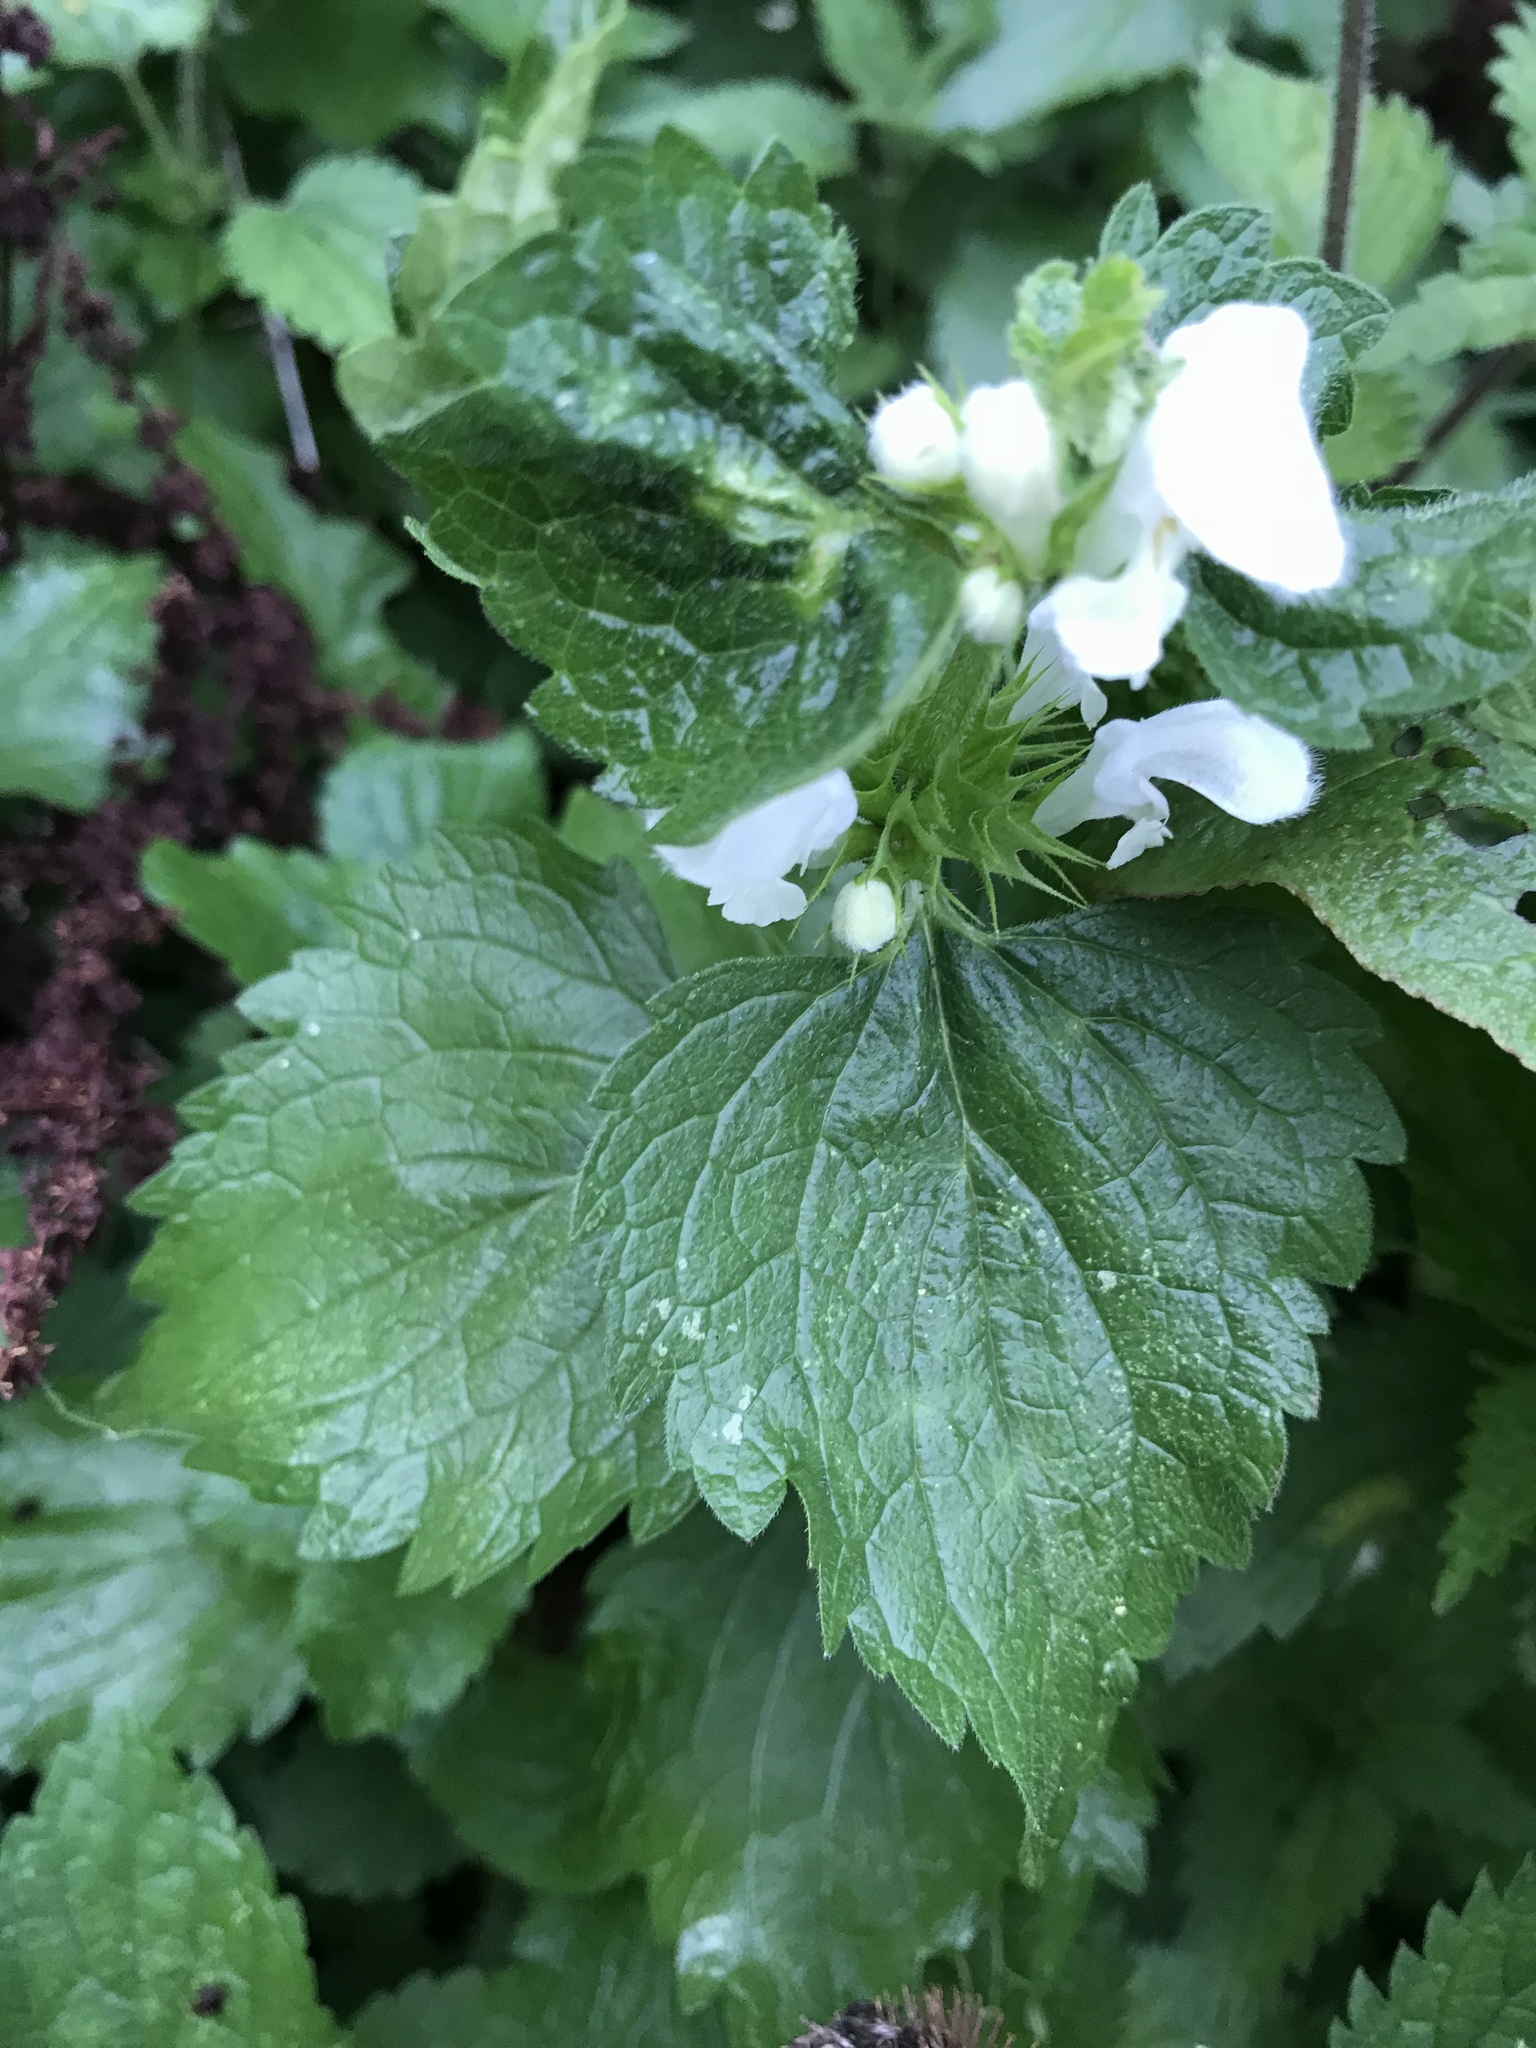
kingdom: Plantae
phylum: Tracheophyta
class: Magnoliopsida
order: Lamiales
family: Lamiaceae
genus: Lamium
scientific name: Lamium album
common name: White dead-nettle
